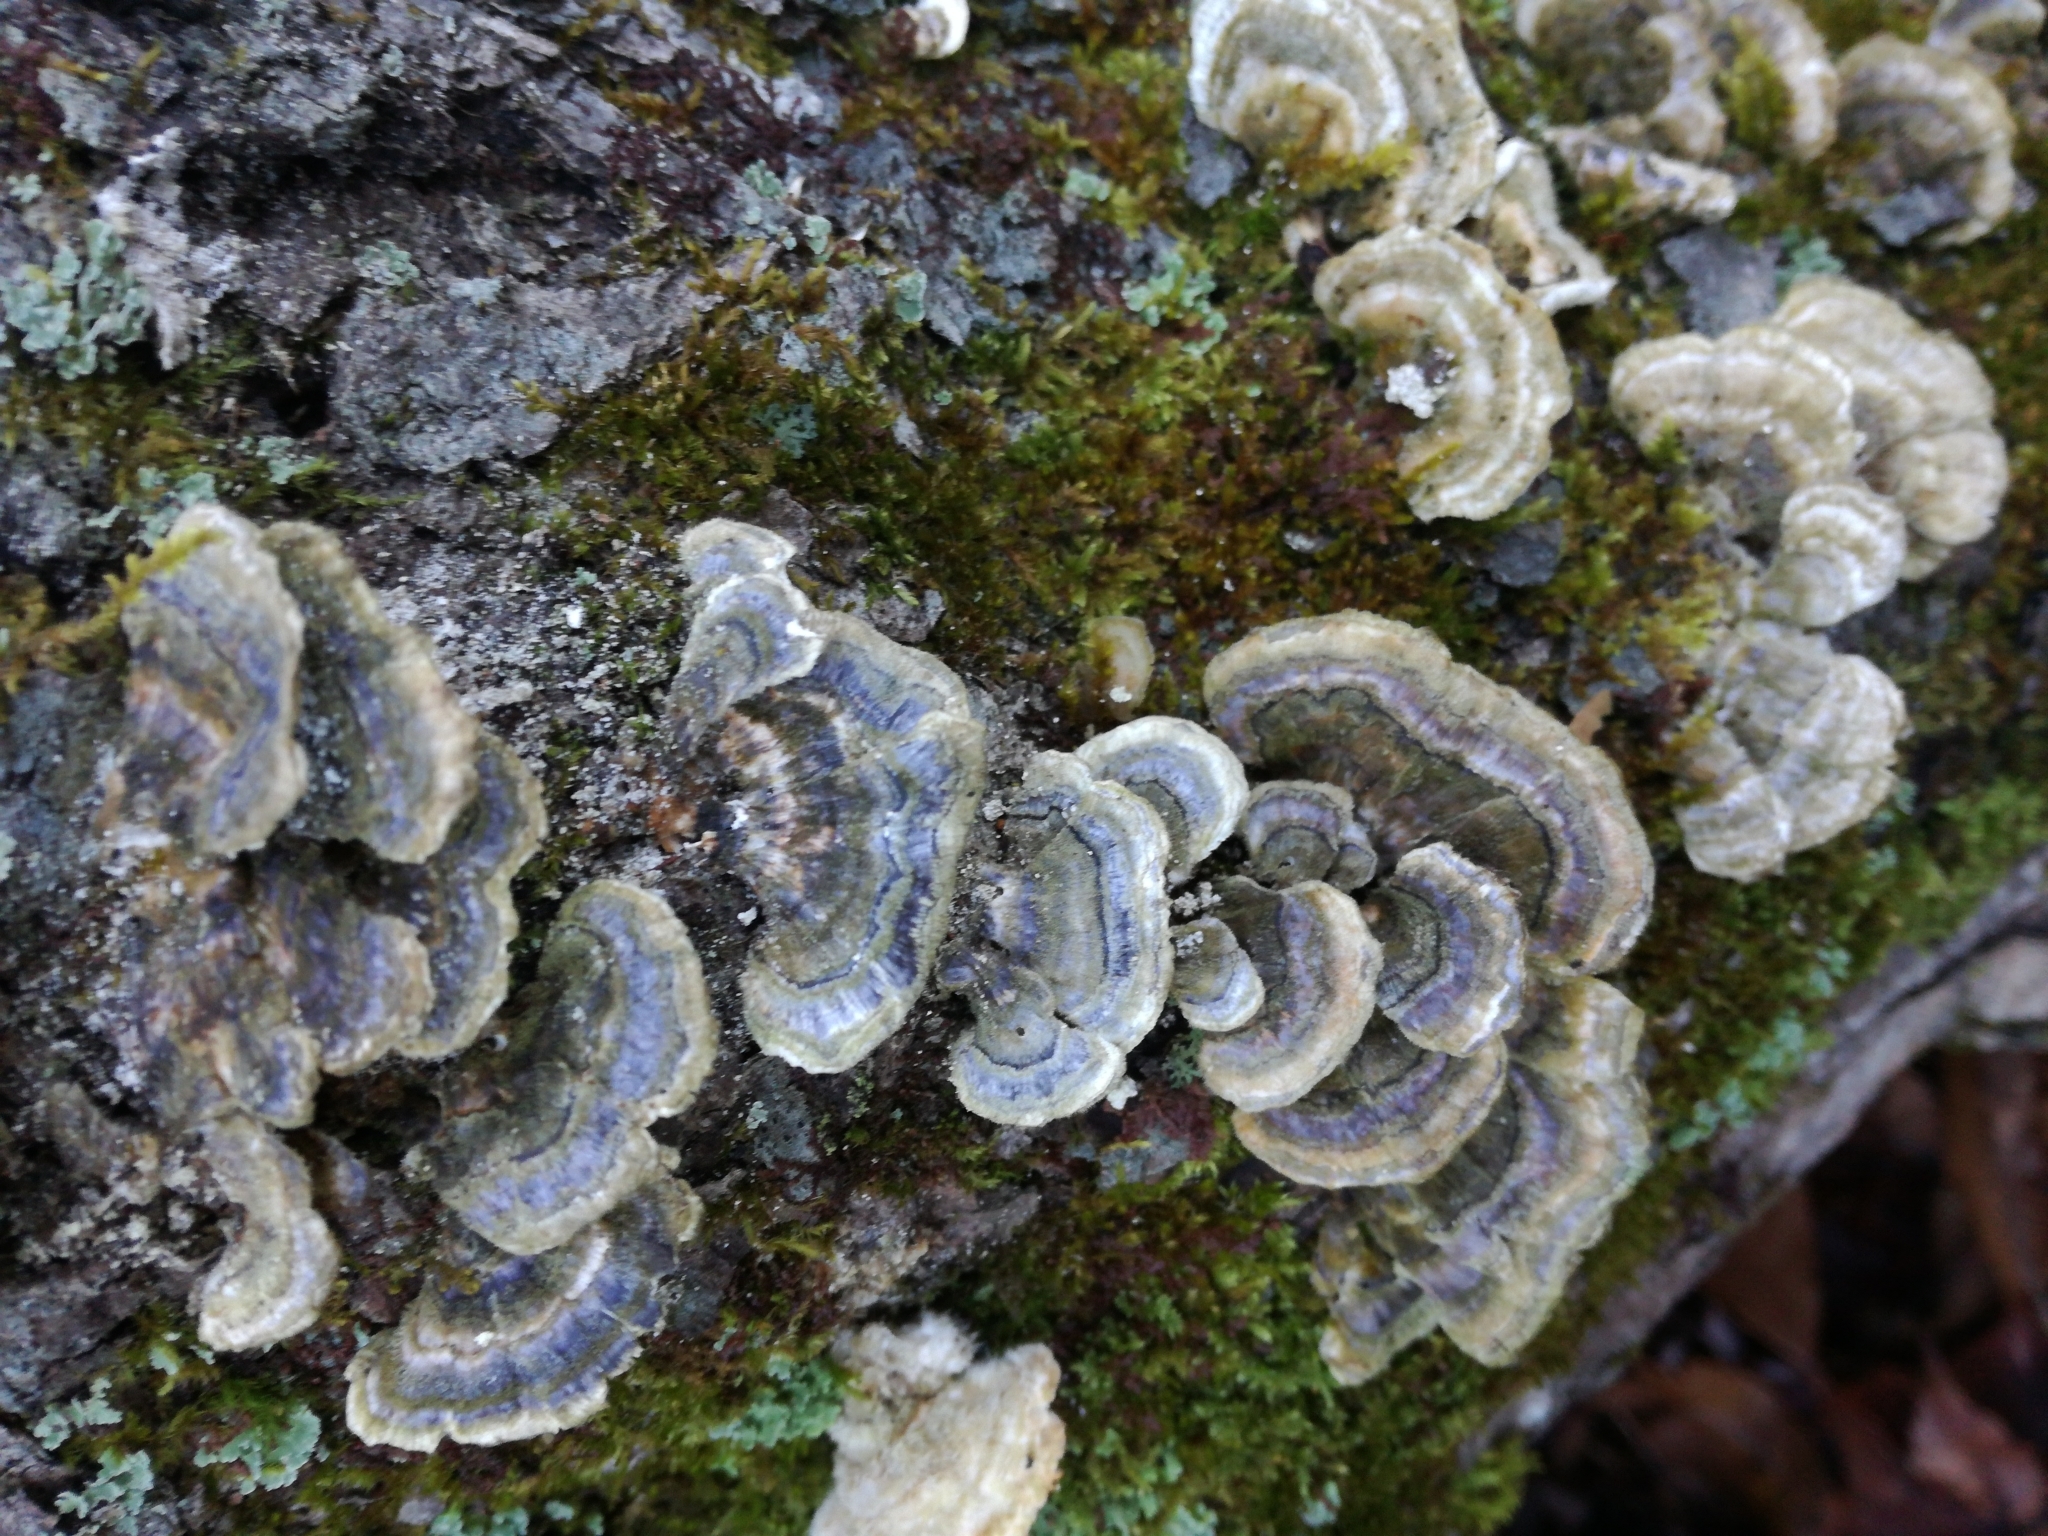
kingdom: Fungi
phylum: Basidiomycota
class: Agaricomycetes
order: Polyporales
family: Polyporaceae
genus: Trametes
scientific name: Trametes versicolor
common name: Turkeytail
